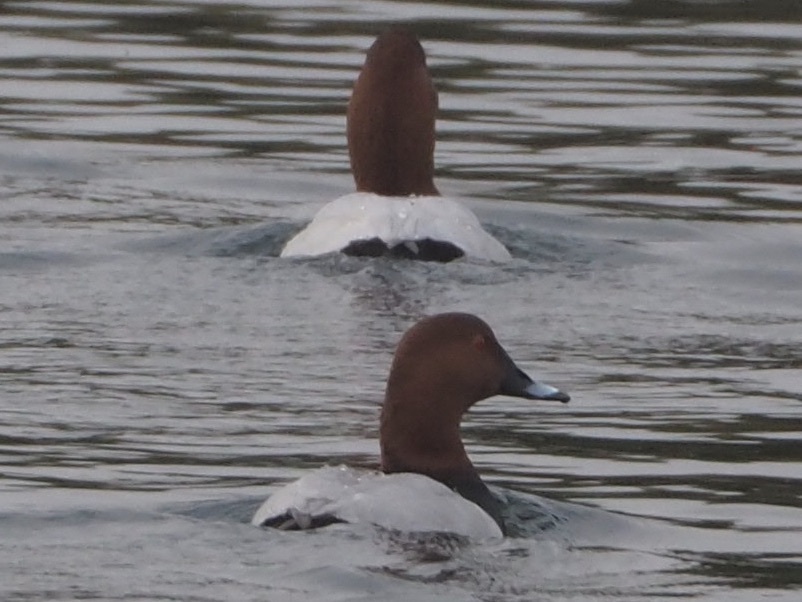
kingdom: Animalia
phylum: Chordata
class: Aves
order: Anseriformes
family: Anatidae
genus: Aythya
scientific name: Aythya ferina
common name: Common pochard
